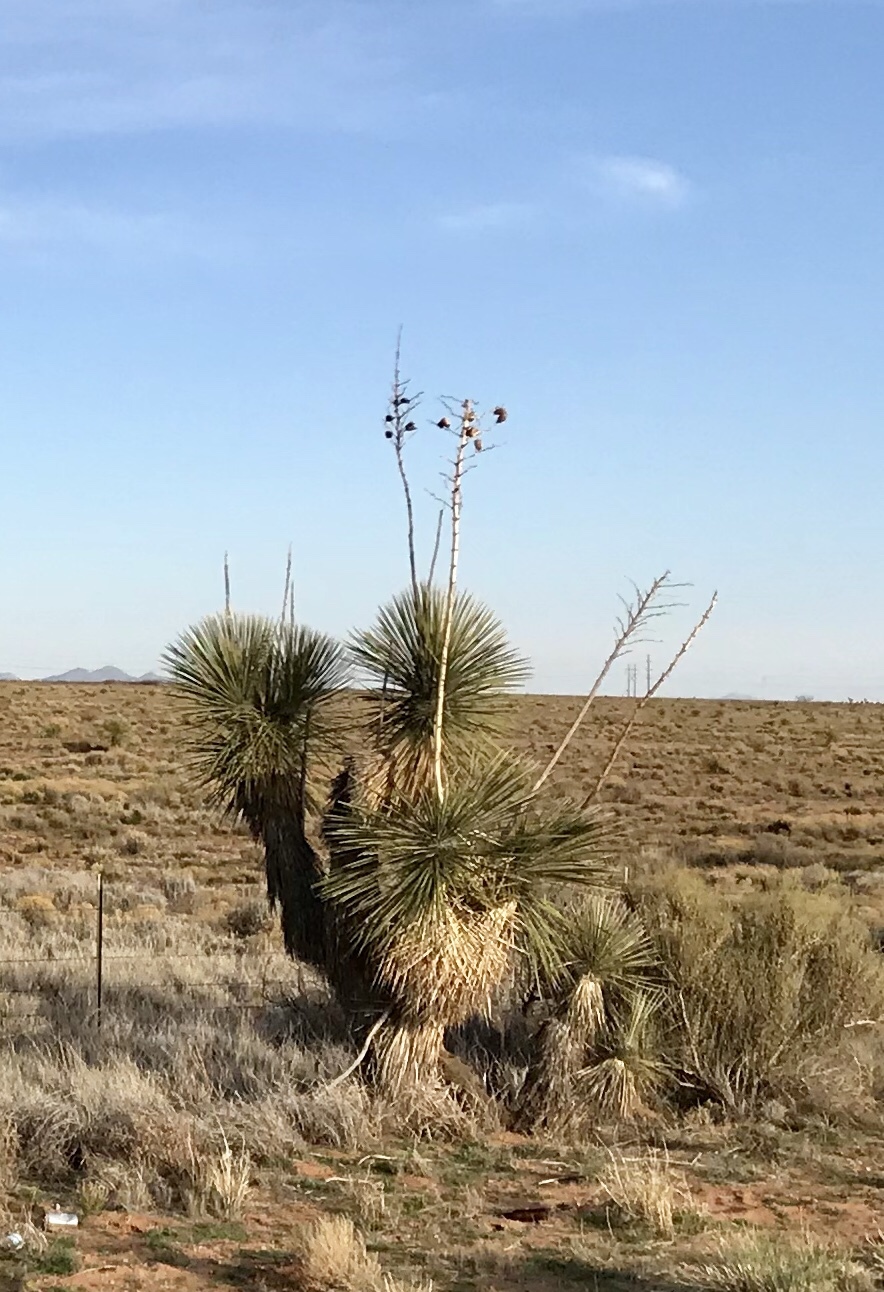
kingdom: Plantae
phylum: Tracheophyta
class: Liliopsida
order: Asparagales
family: Asparagaceae
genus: Yucca
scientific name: Yucca elata
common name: Palmella
